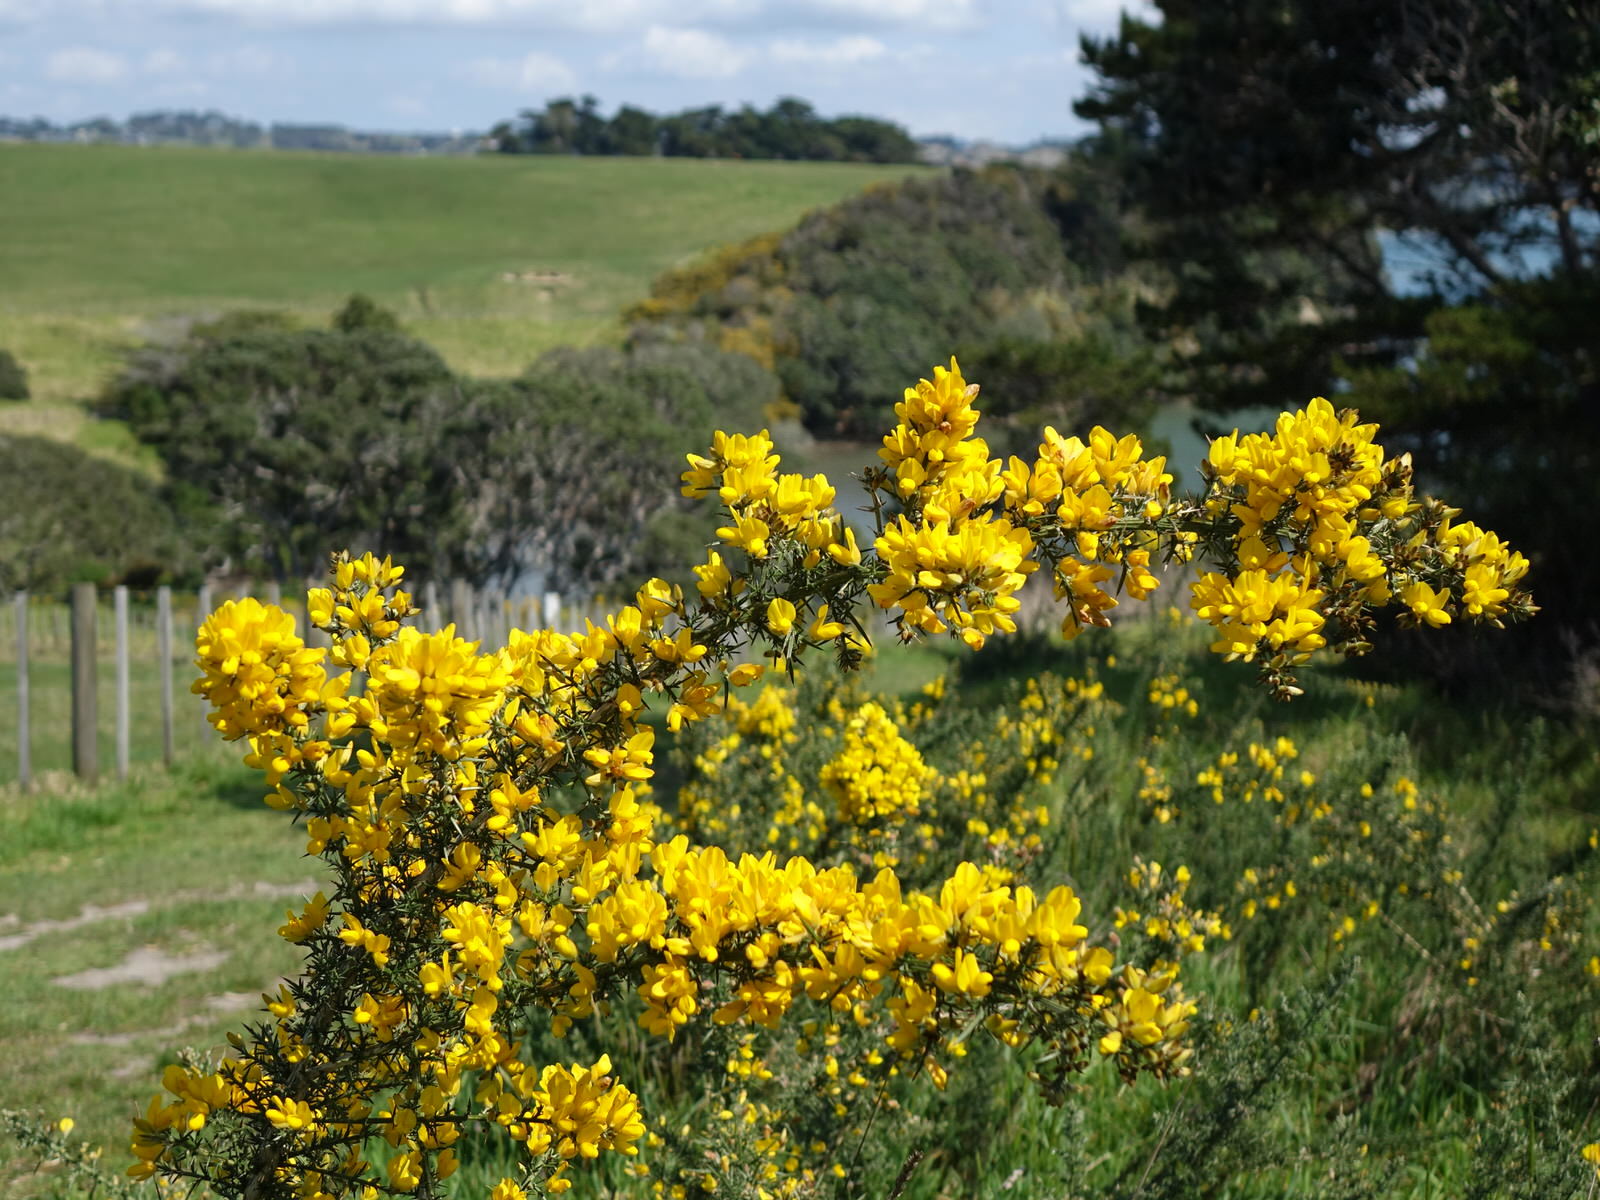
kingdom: Plantae
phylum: Tracheophyta
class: Magnoliopsida
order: Fabales
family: Fabaceae
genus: Ulex
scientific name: Ulex europaeus
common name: Common gorse
